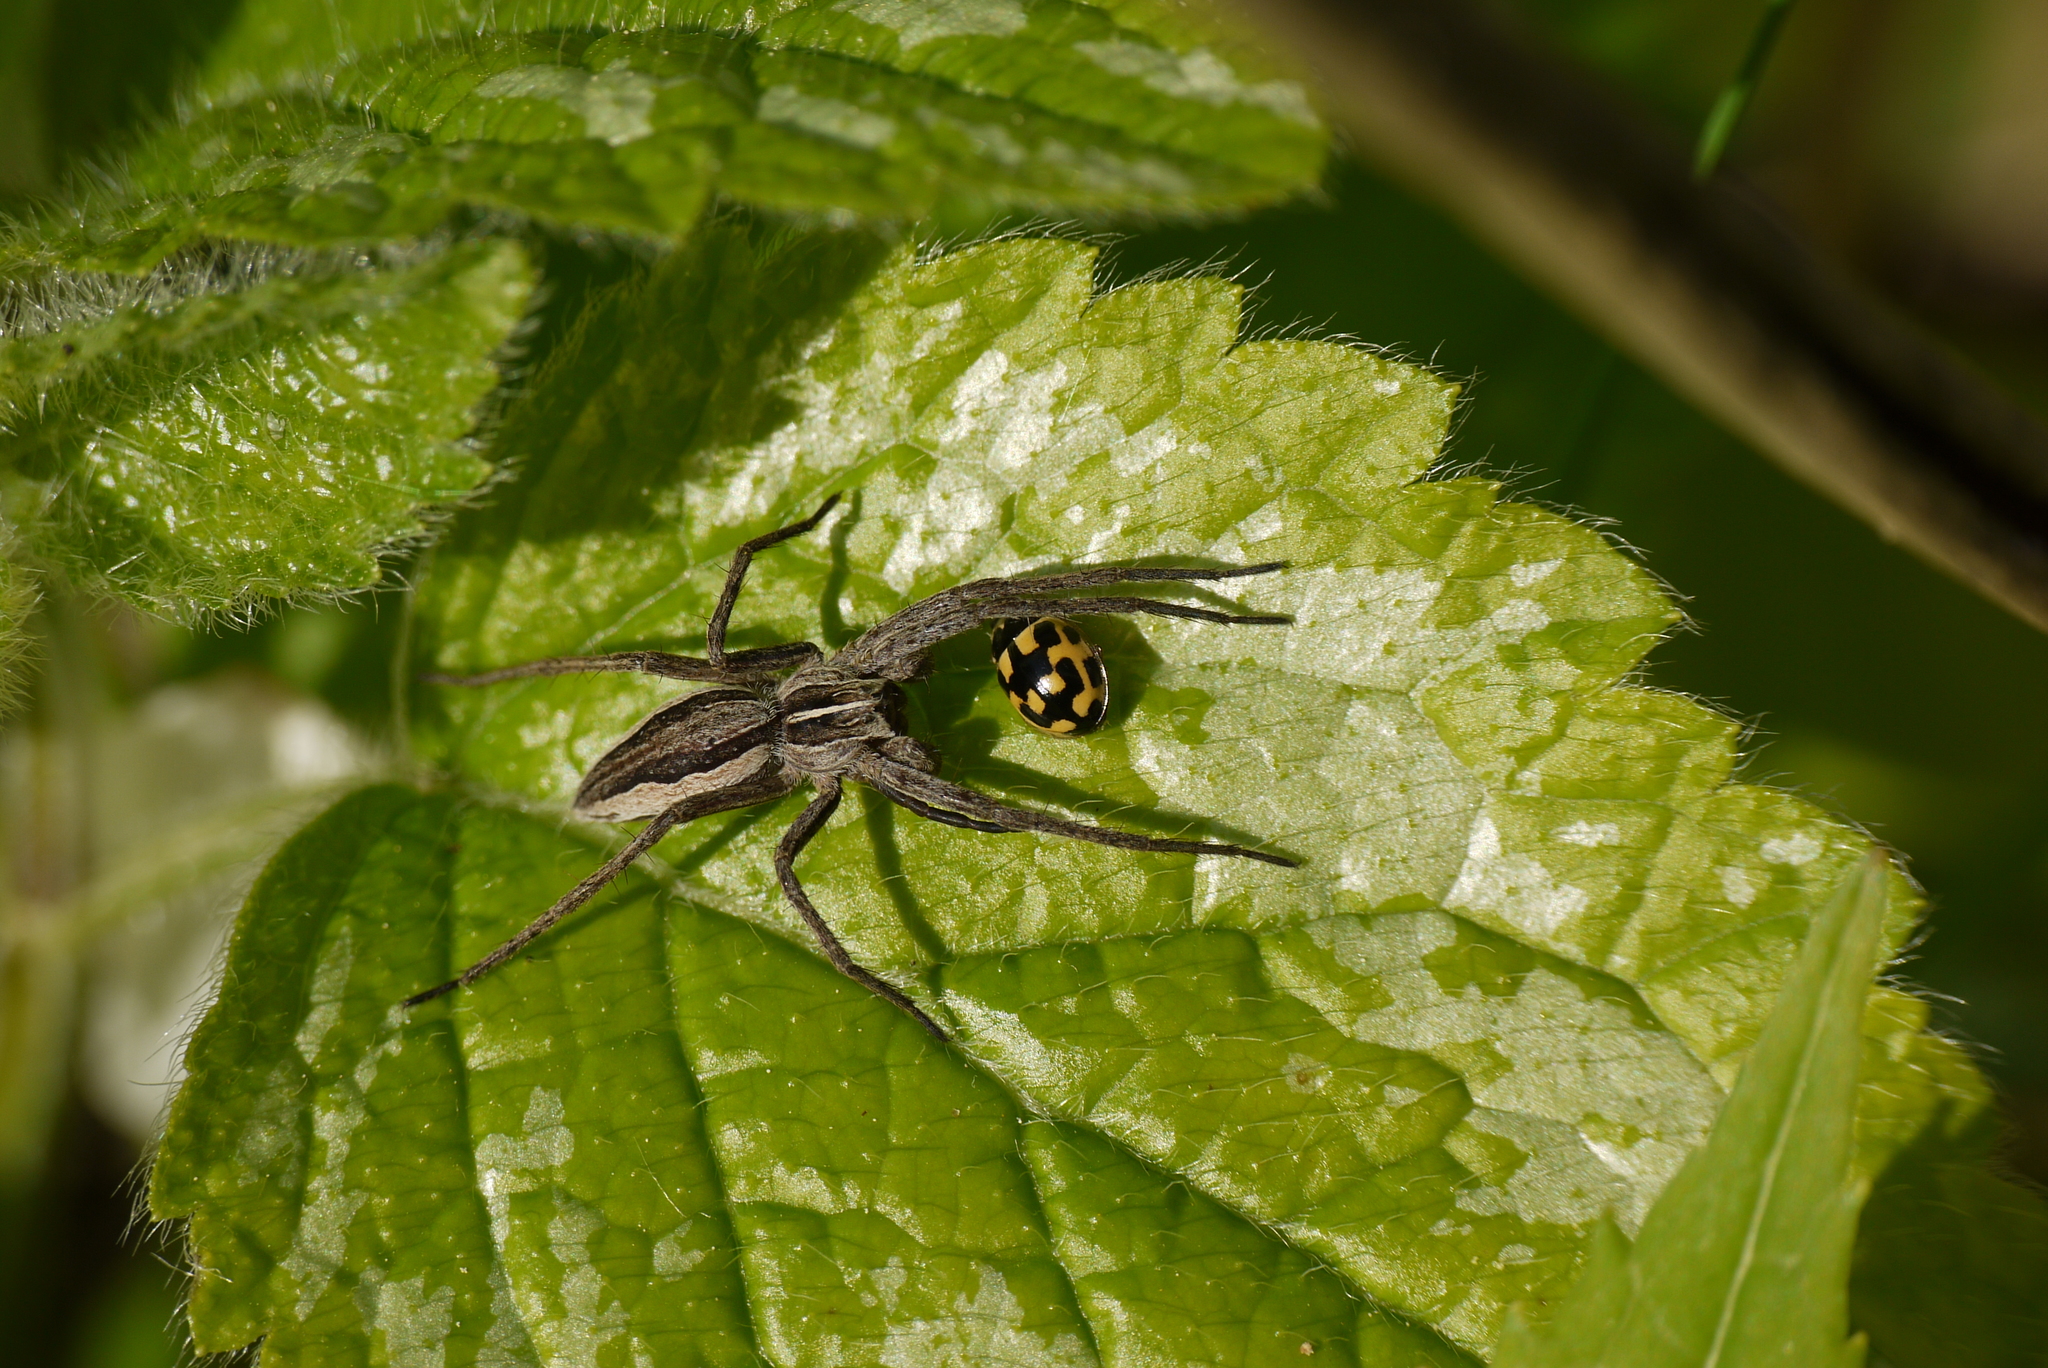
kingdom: Animalia
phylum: Arthropoda
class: Arachnida
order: Araneae
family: Pisauridae
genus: Pisaura
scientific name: Pisaura mirabilis
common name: Tent spider
